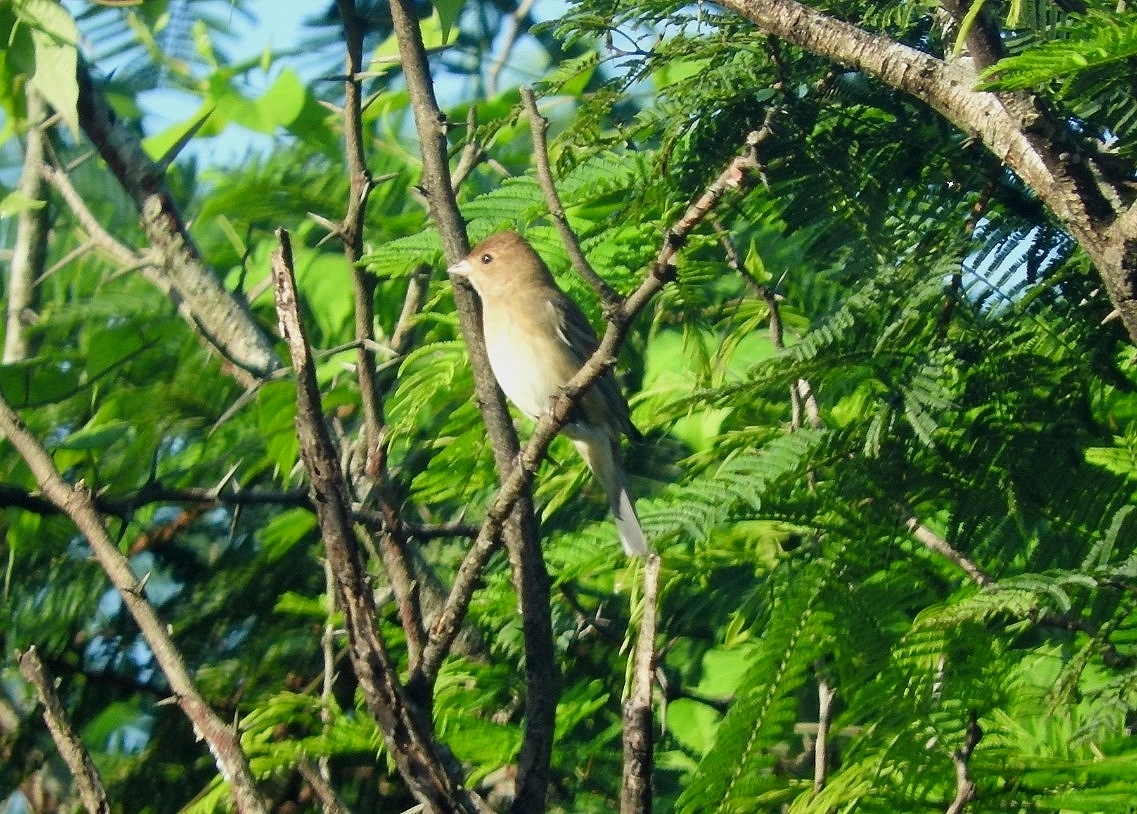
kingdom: Animalia
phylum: Chordata
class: Aves
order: Passeriformes
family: Cardinalidae
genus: Passerina
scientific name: Passerina cyanea
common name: Indigo bunting
